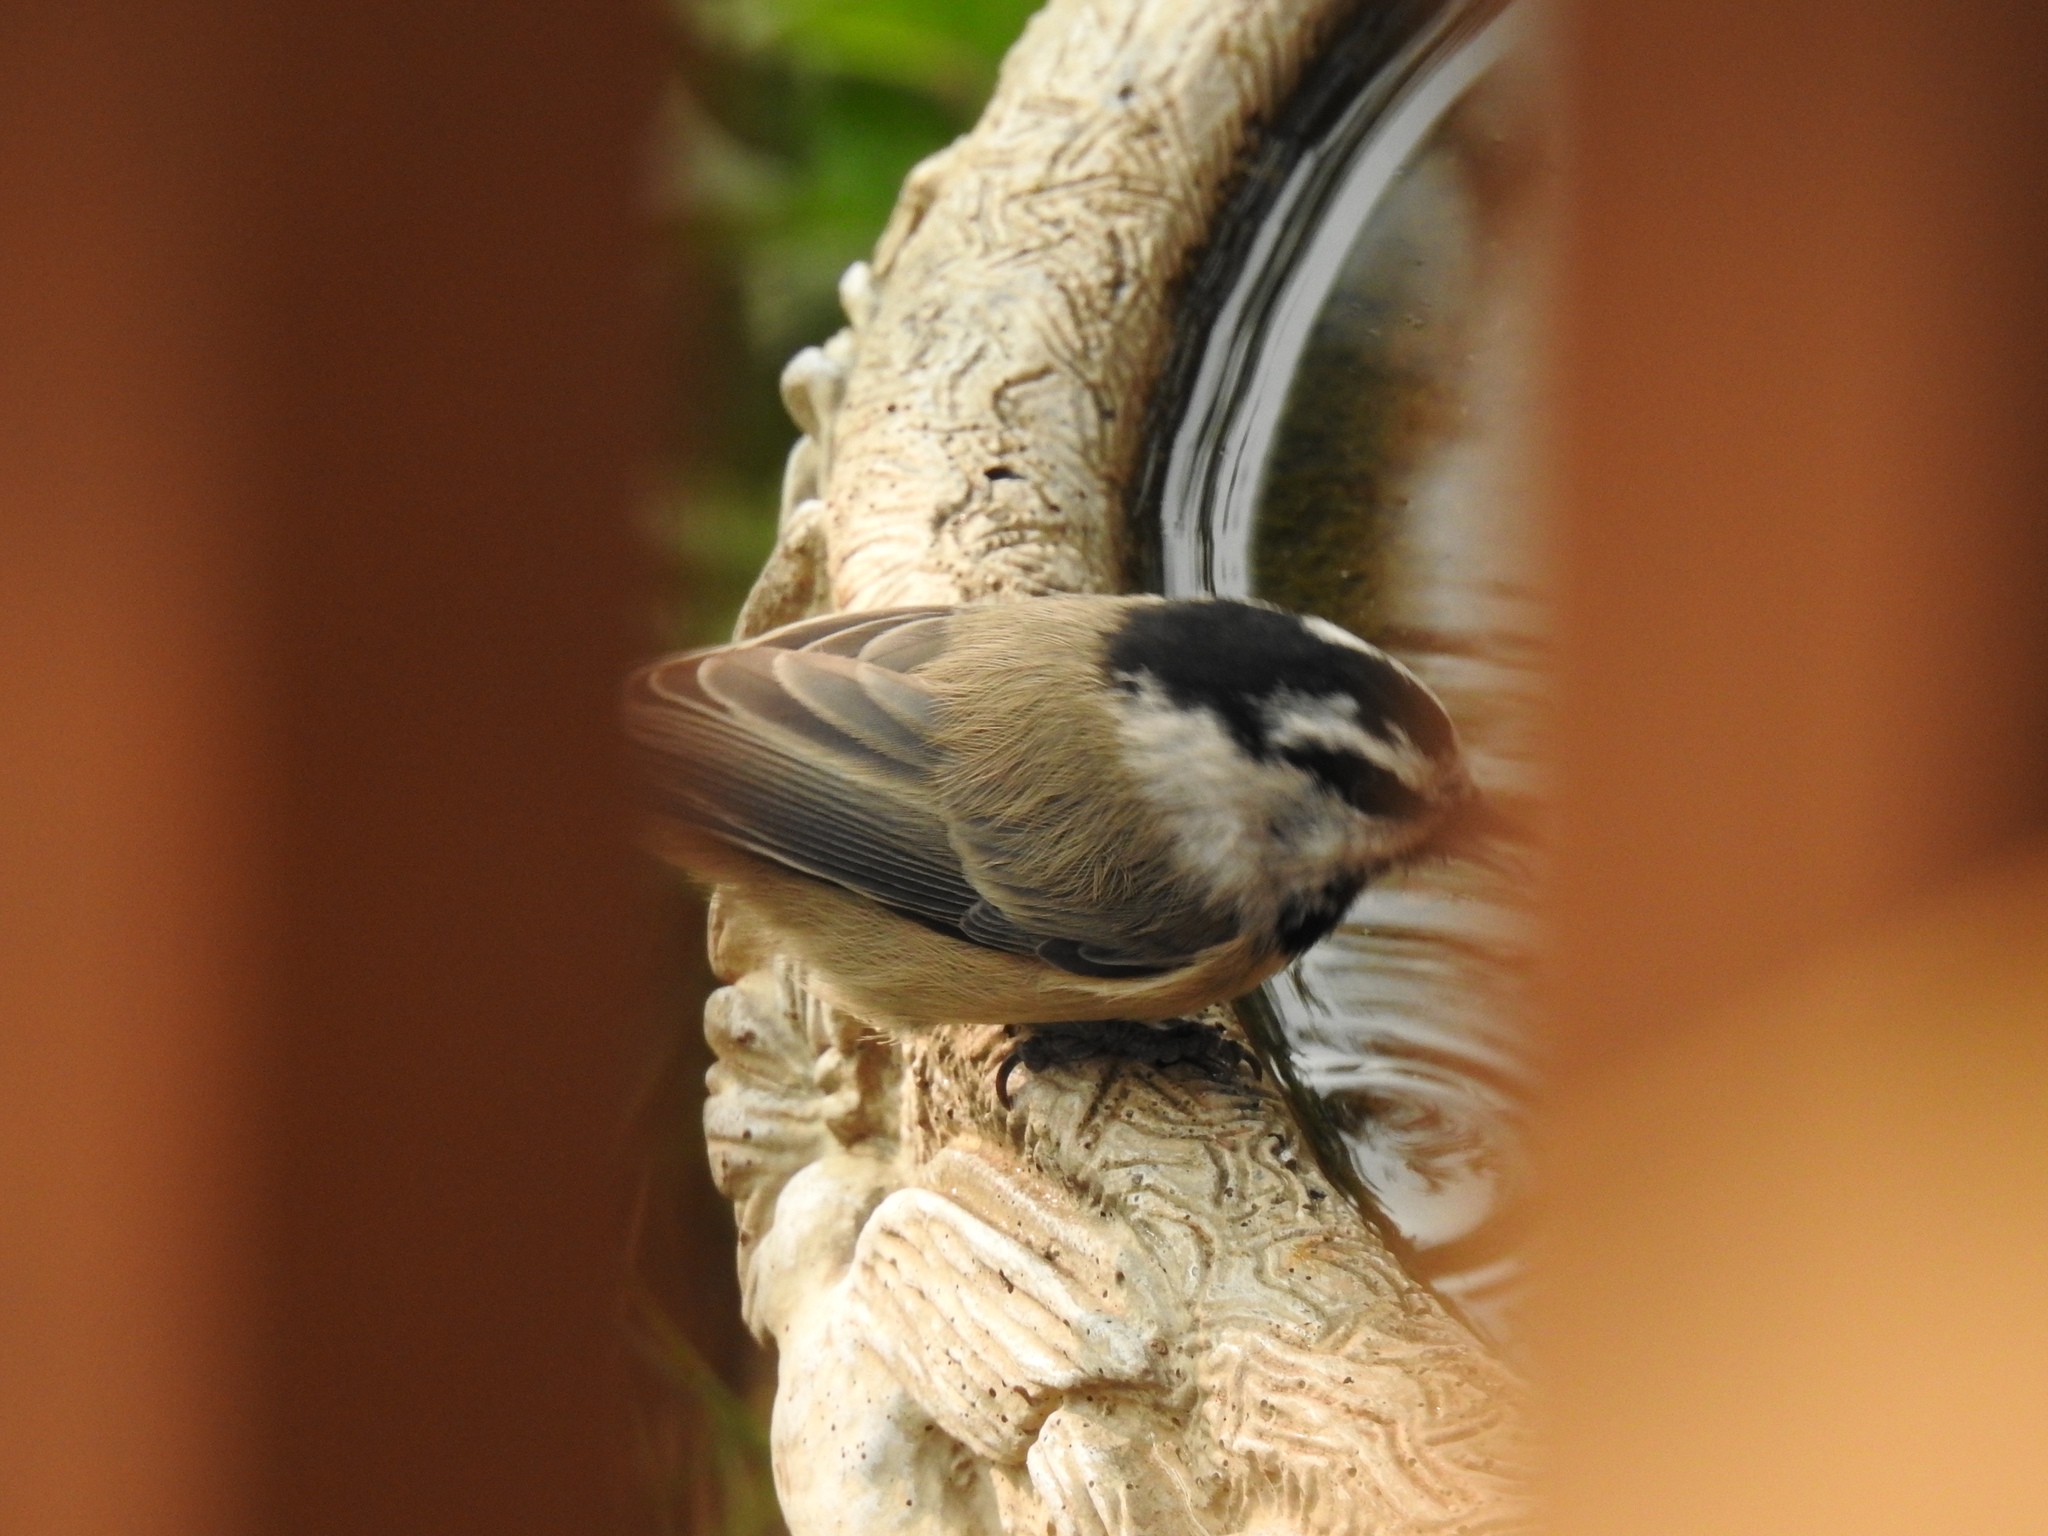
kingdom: Animalia
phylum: Chordata
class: Aves
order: Passeriformes
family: Paridae
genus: Poecile
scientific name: Poecile gambeli
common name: Mountain chickadee
